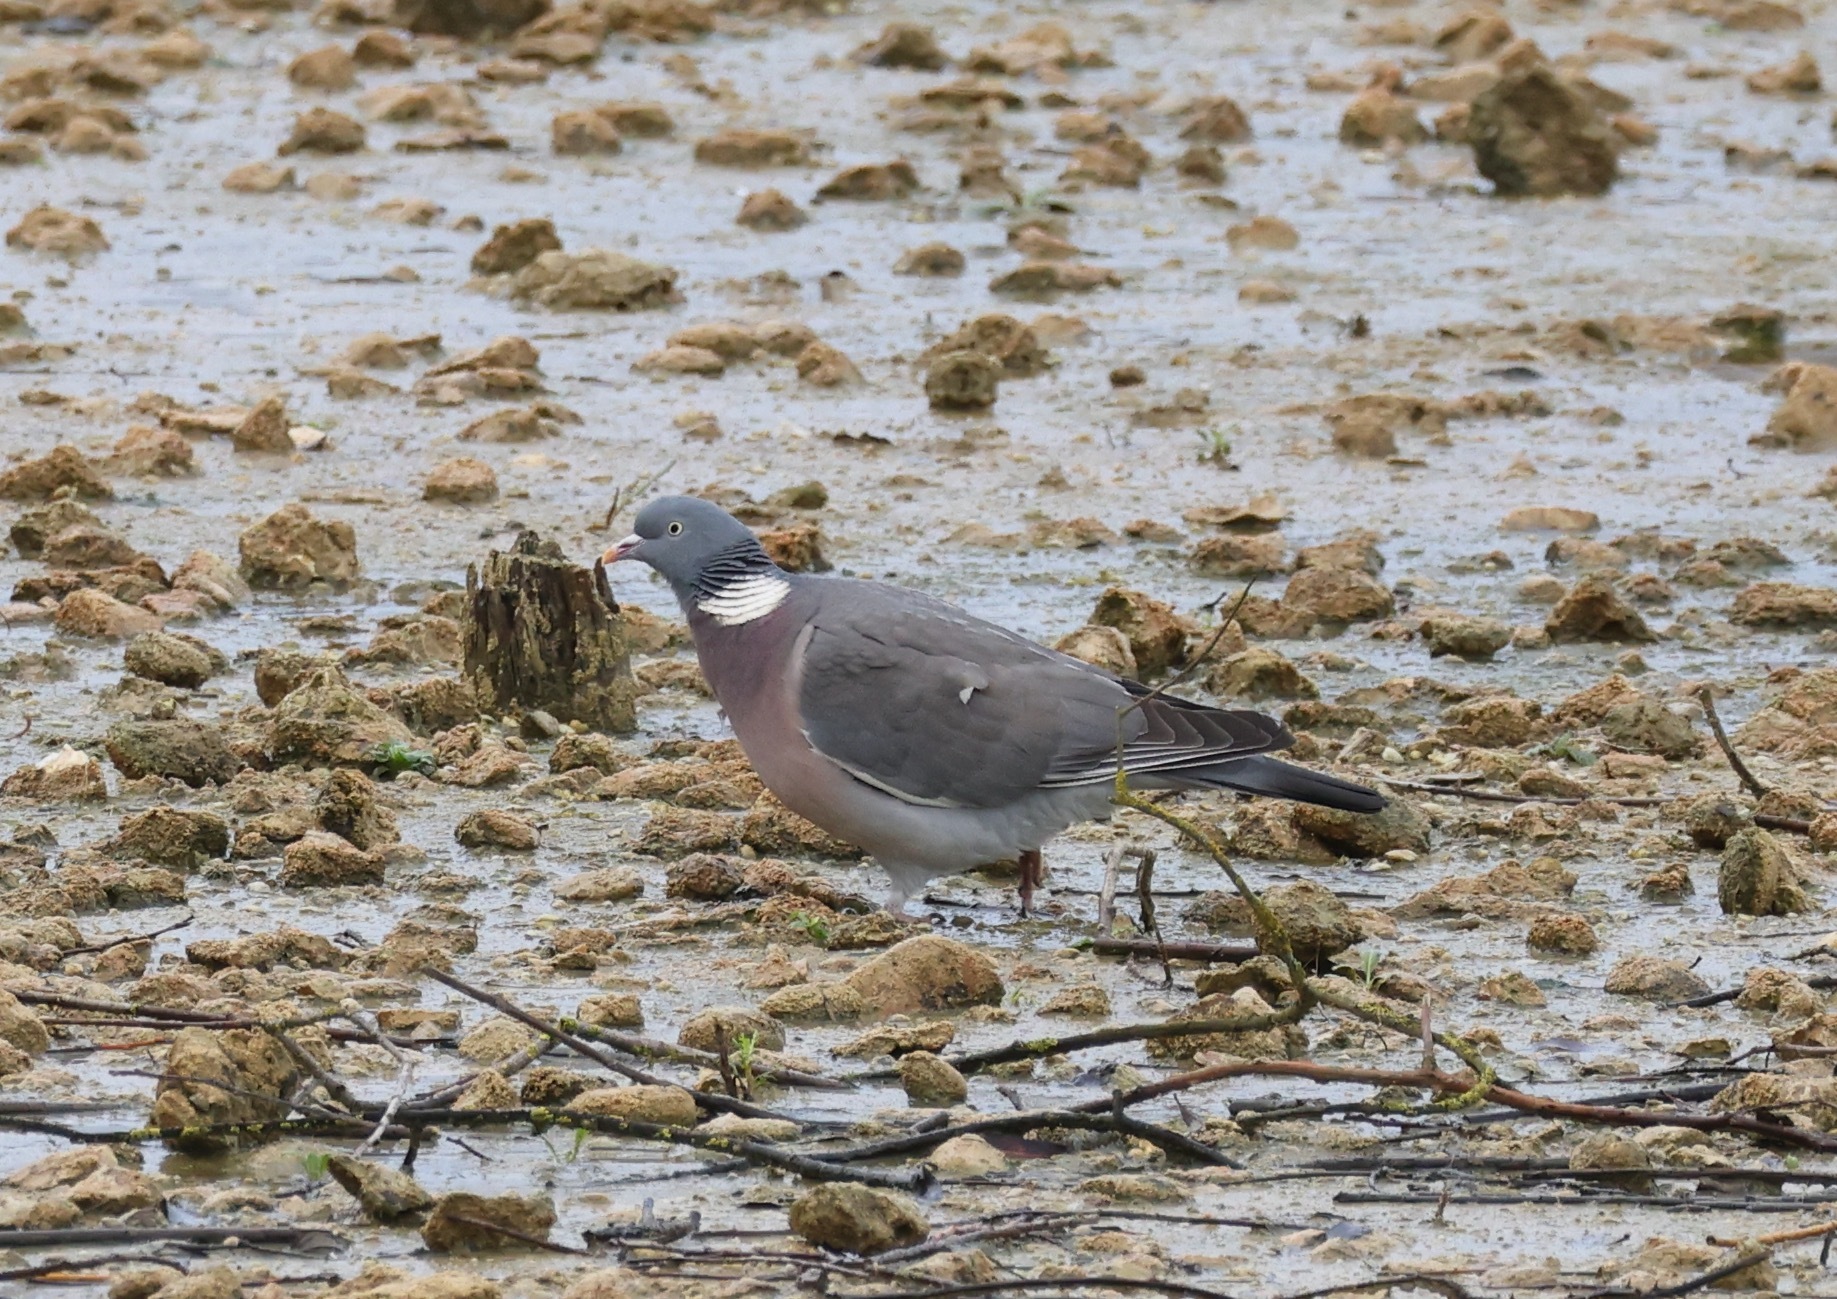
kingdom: Animalia
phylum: Chordata
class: Aves
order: Columbiformes
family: Columbidae
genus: Columba
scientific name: Columba palumbus
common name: Common wood pigeon
